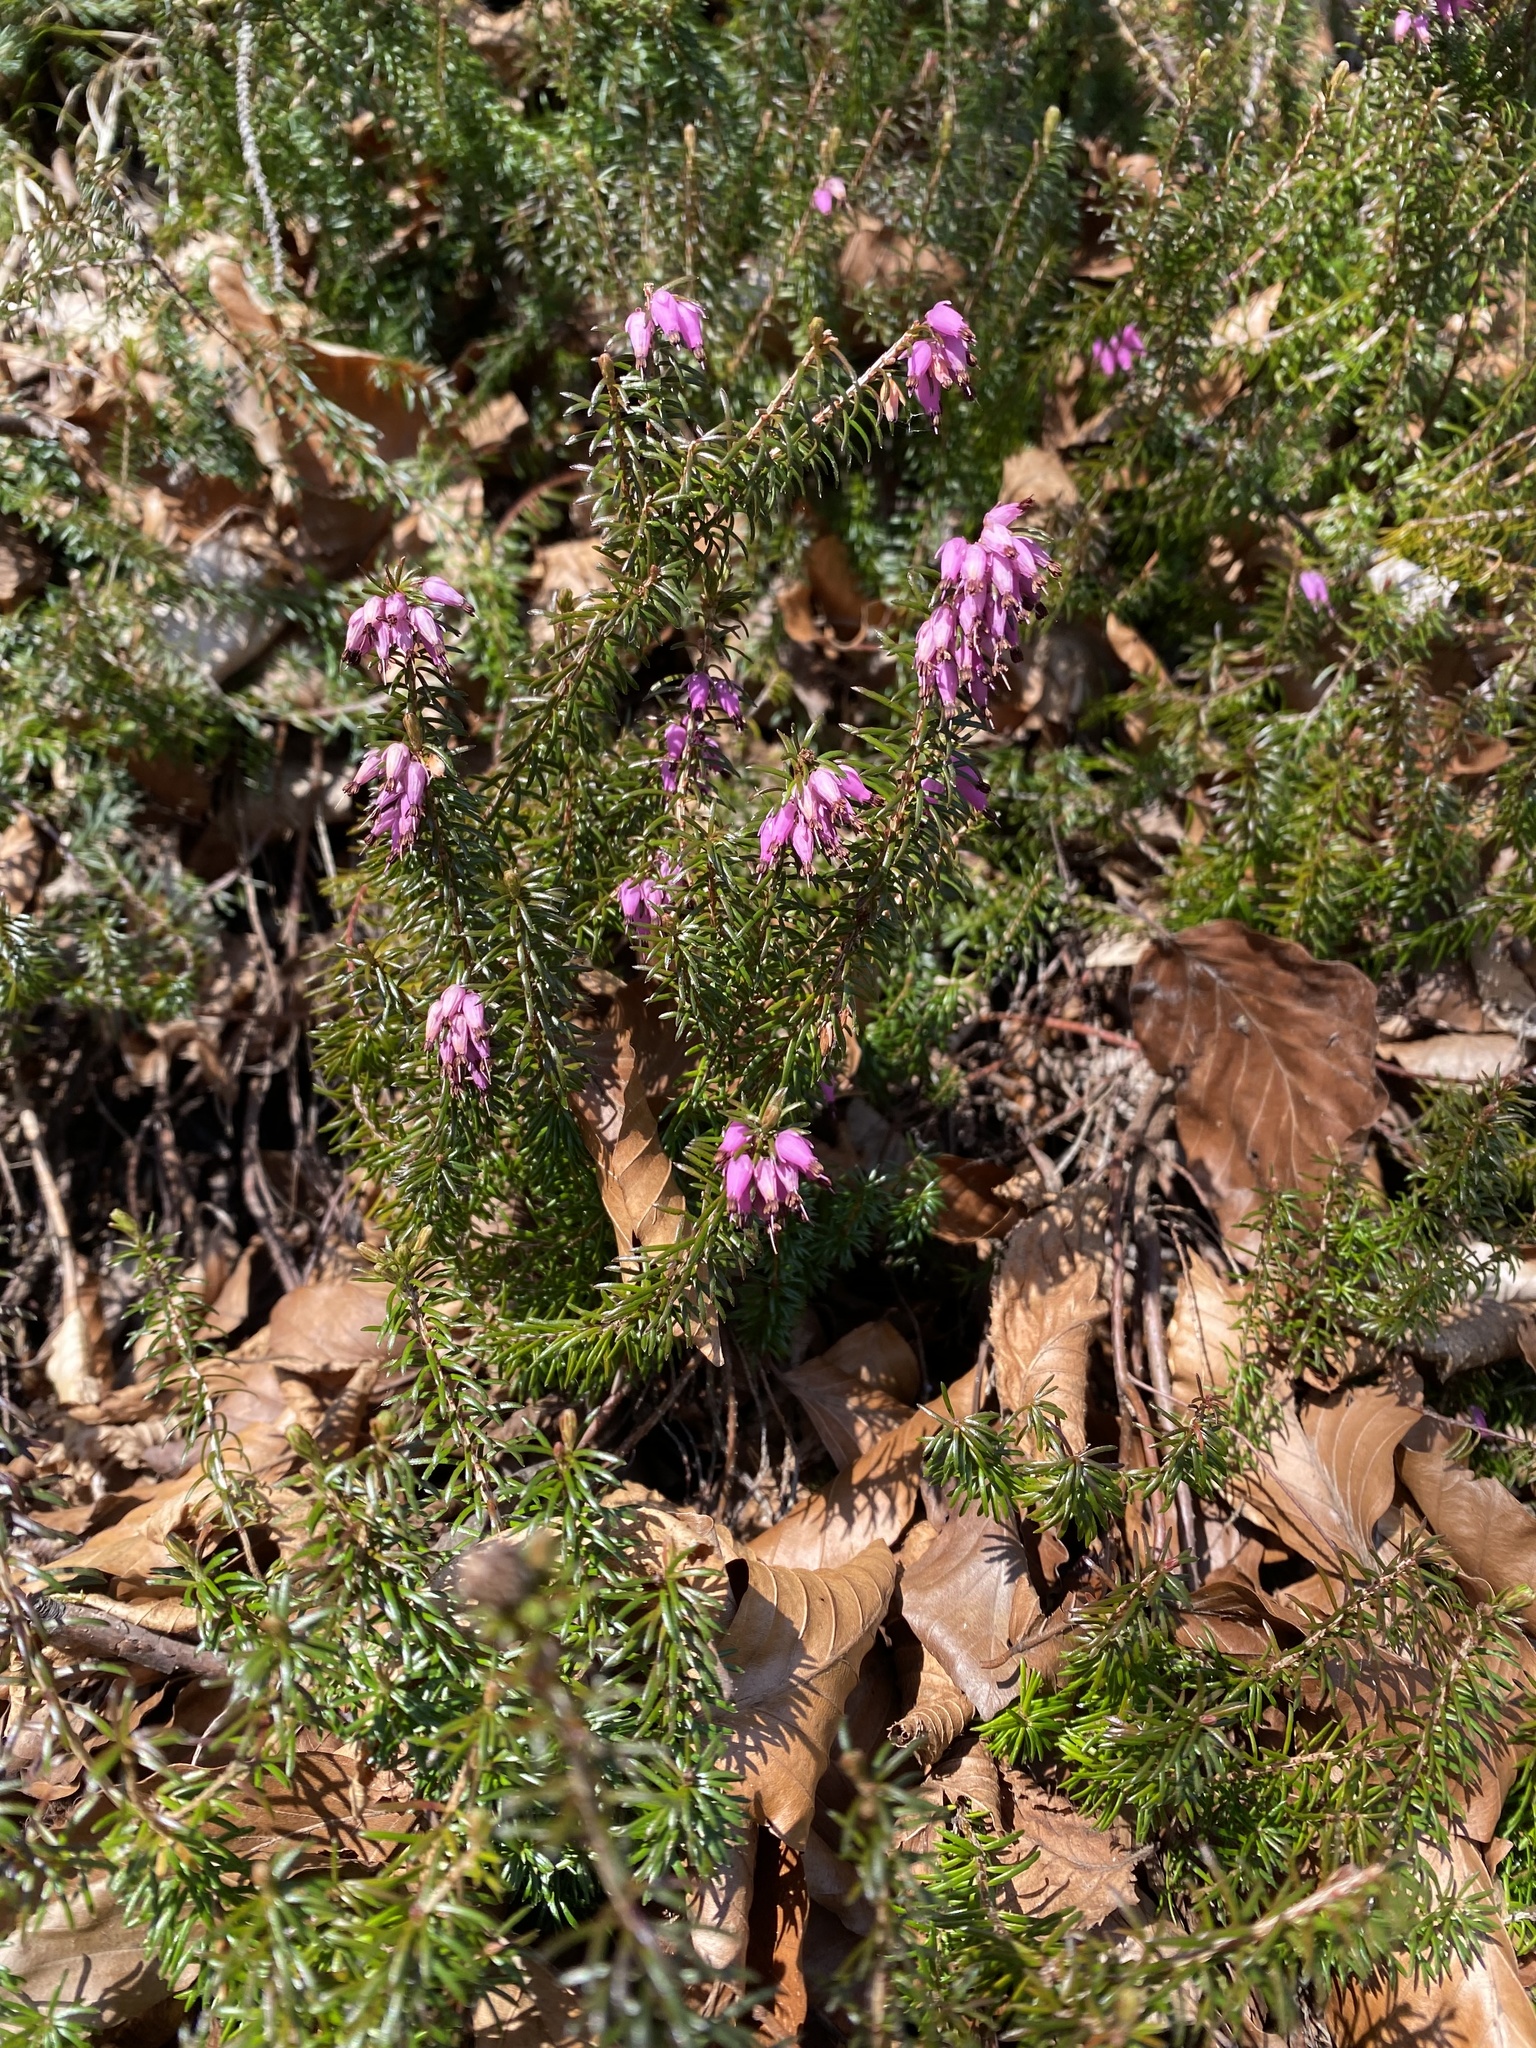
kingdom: Plantae
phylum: Tracheophyta
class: Magnoliopsida
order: Ericales
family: Ericaceae
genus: Erica
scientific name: Erica carnea
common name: Winter heath
